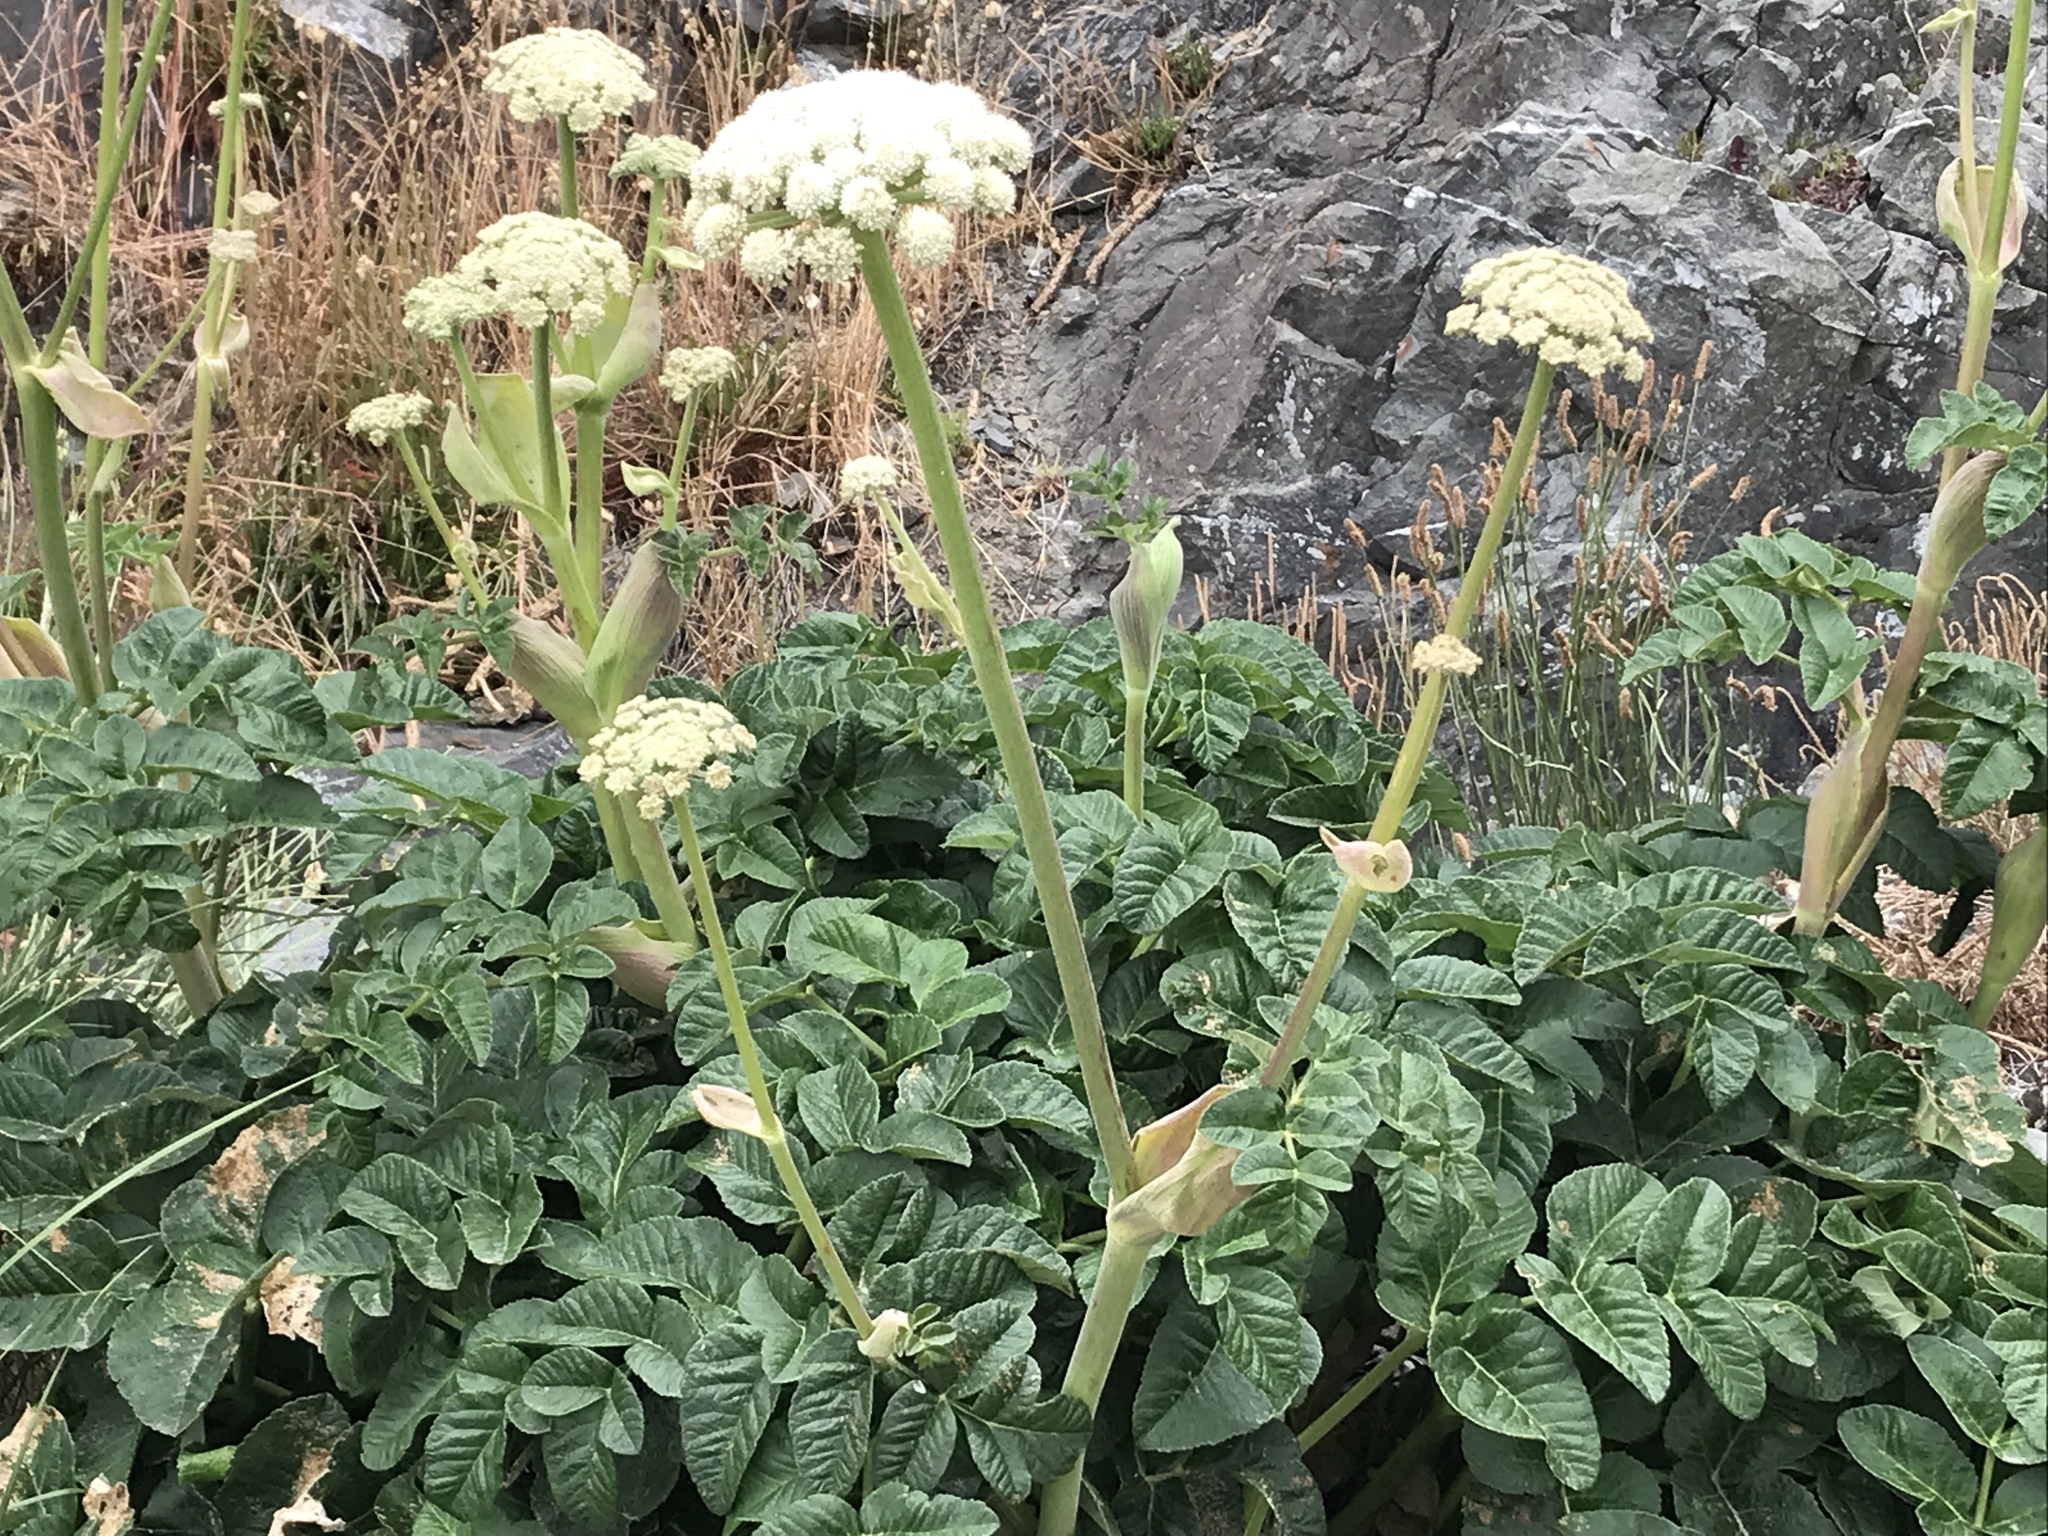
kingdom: Plantae
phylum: Tracheophyta
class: Magnoliopsida
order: Apiales
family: Apiaceae
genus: Angelica
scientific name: Angelica hendersonii
